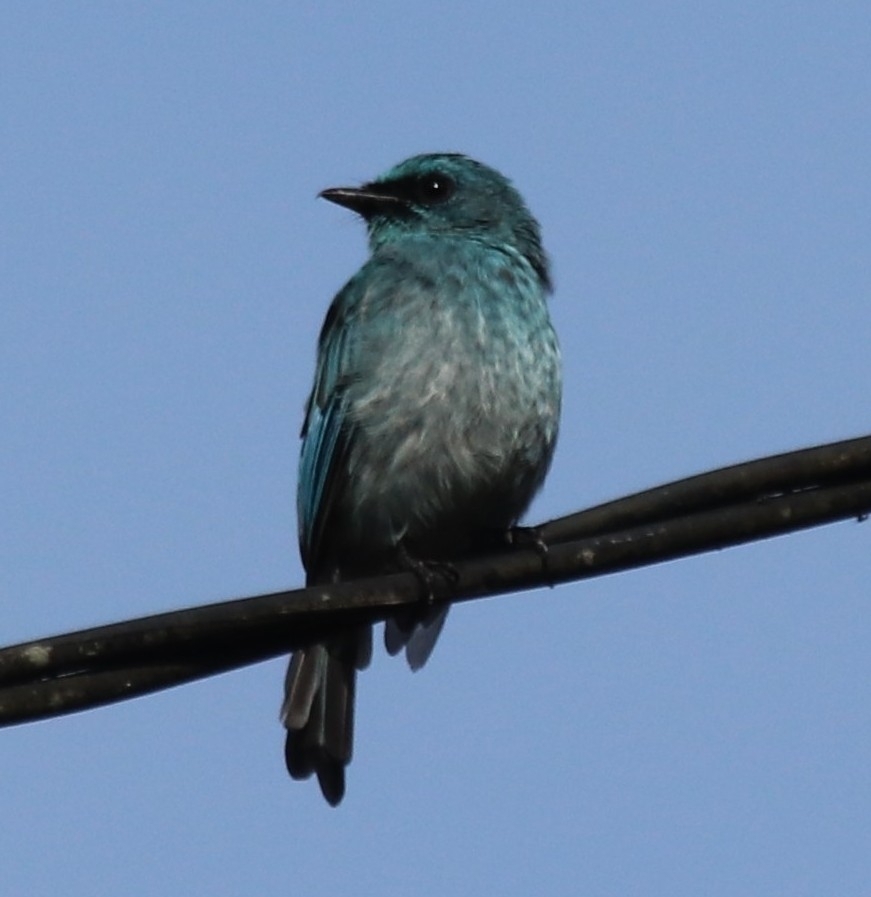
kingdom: Animalia
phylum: Chordata
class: Aves
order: Passeriformes
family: Muscicapidae
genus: Eumyias
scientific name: Eumyias panayensis
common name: Turquoise flycatcher
